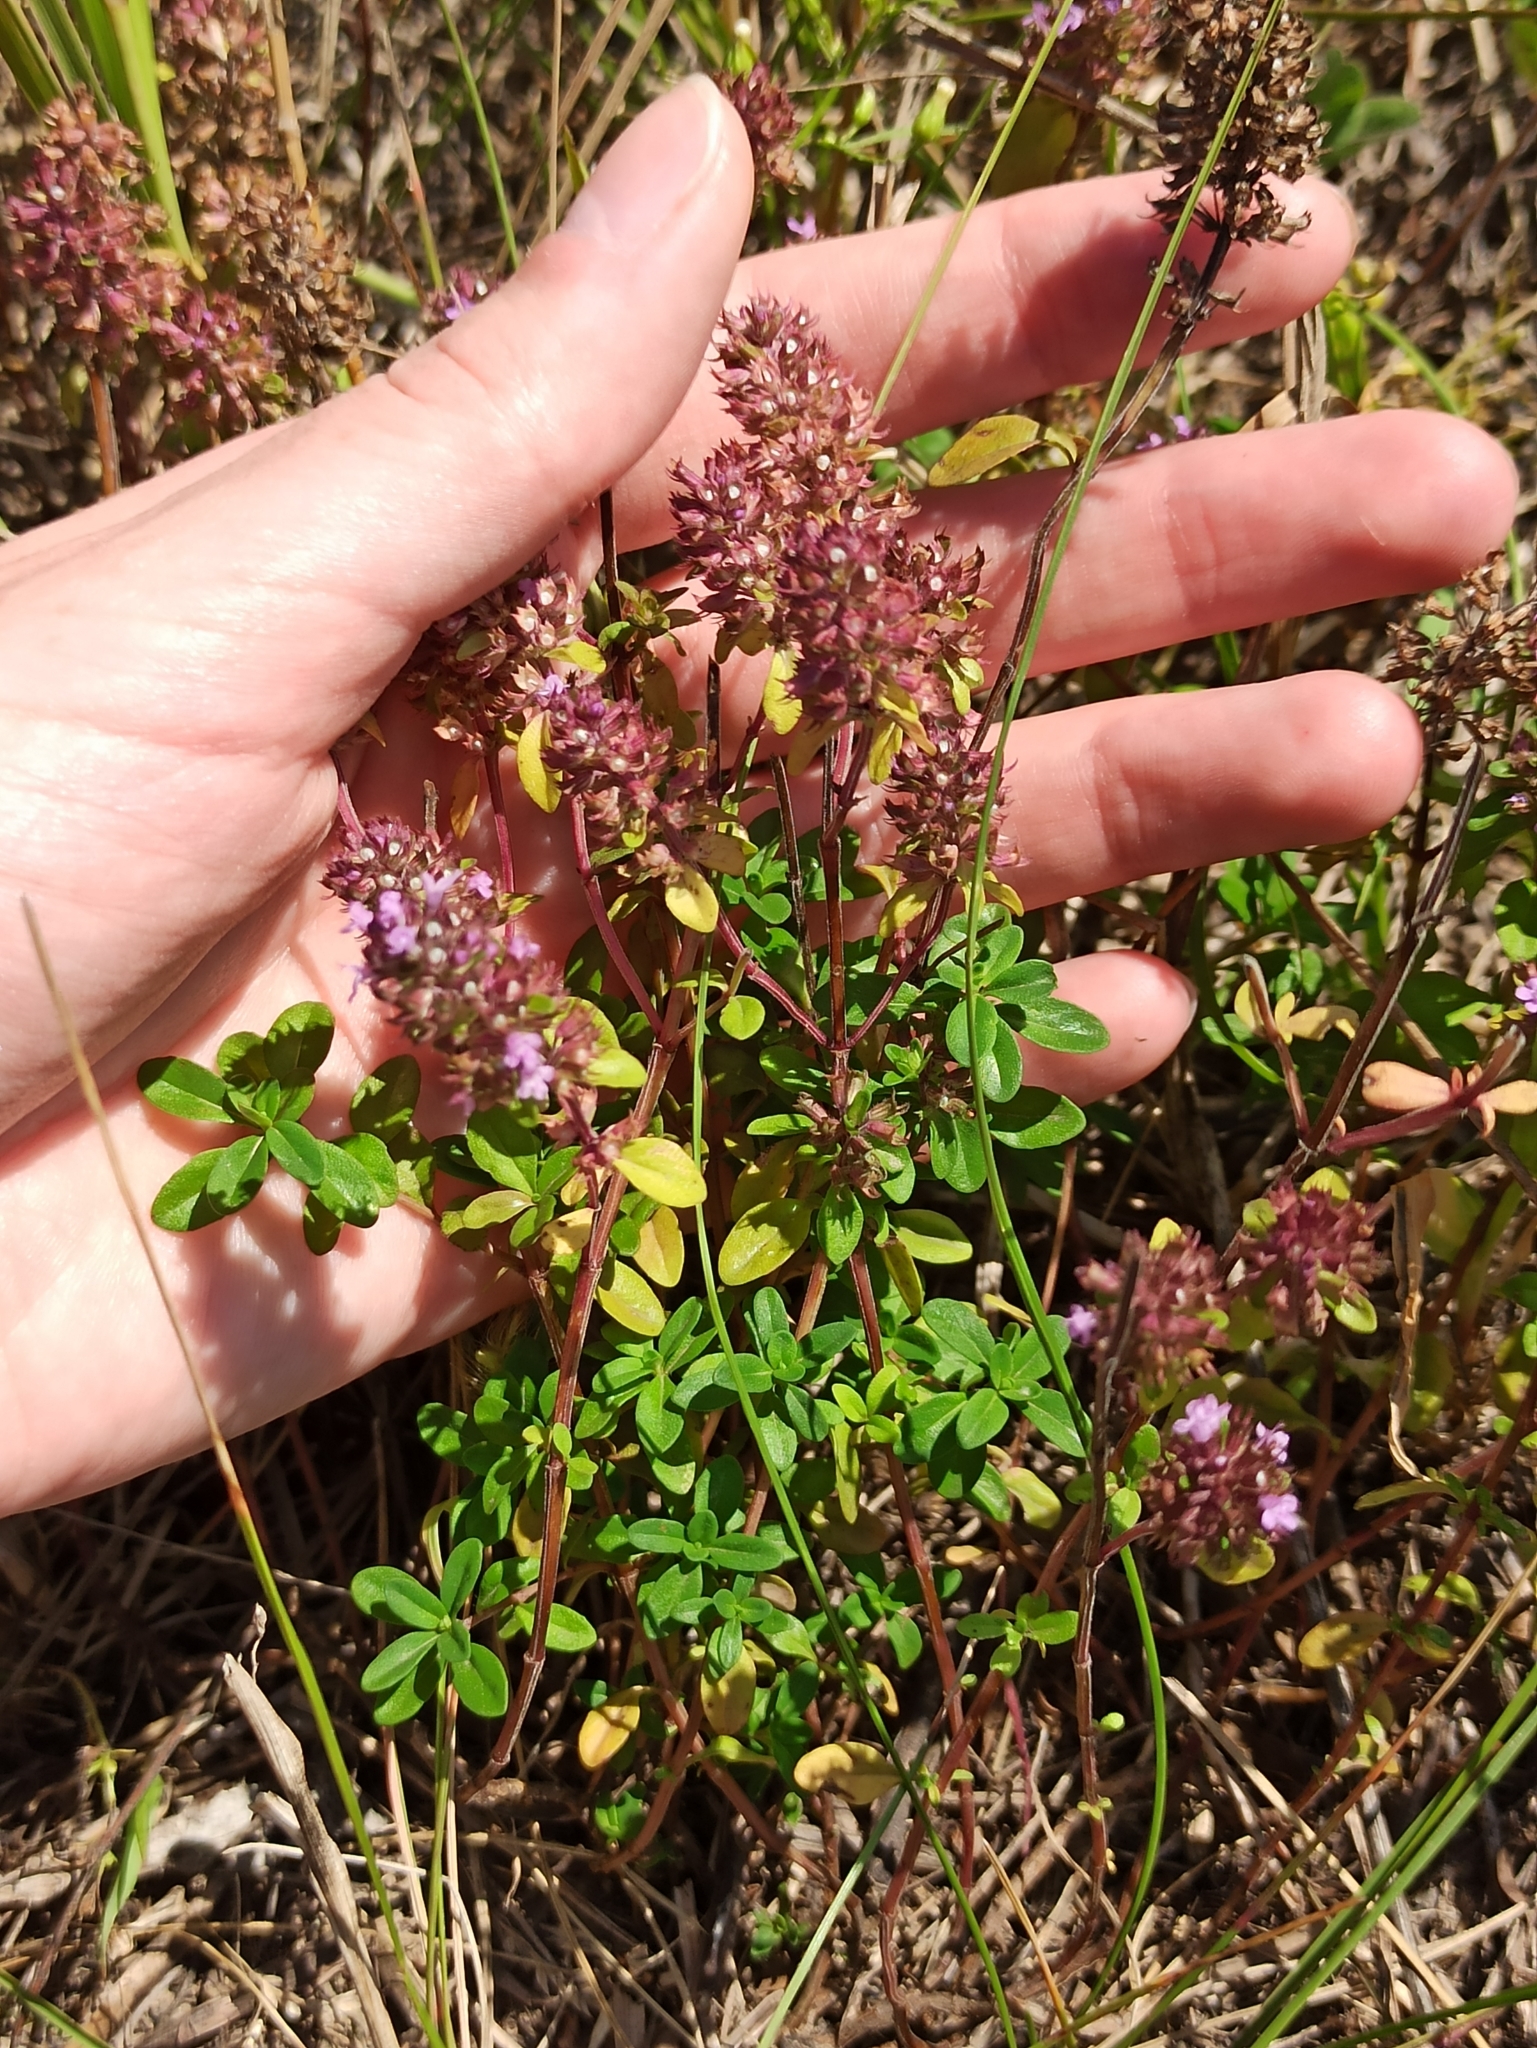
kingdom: Plantae
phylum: Tracheophyta
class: Magnoliopsida
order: Lamiales
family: Lamiaceae
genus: Thymus
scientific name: Thymus pulegioides
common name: Large thyme
